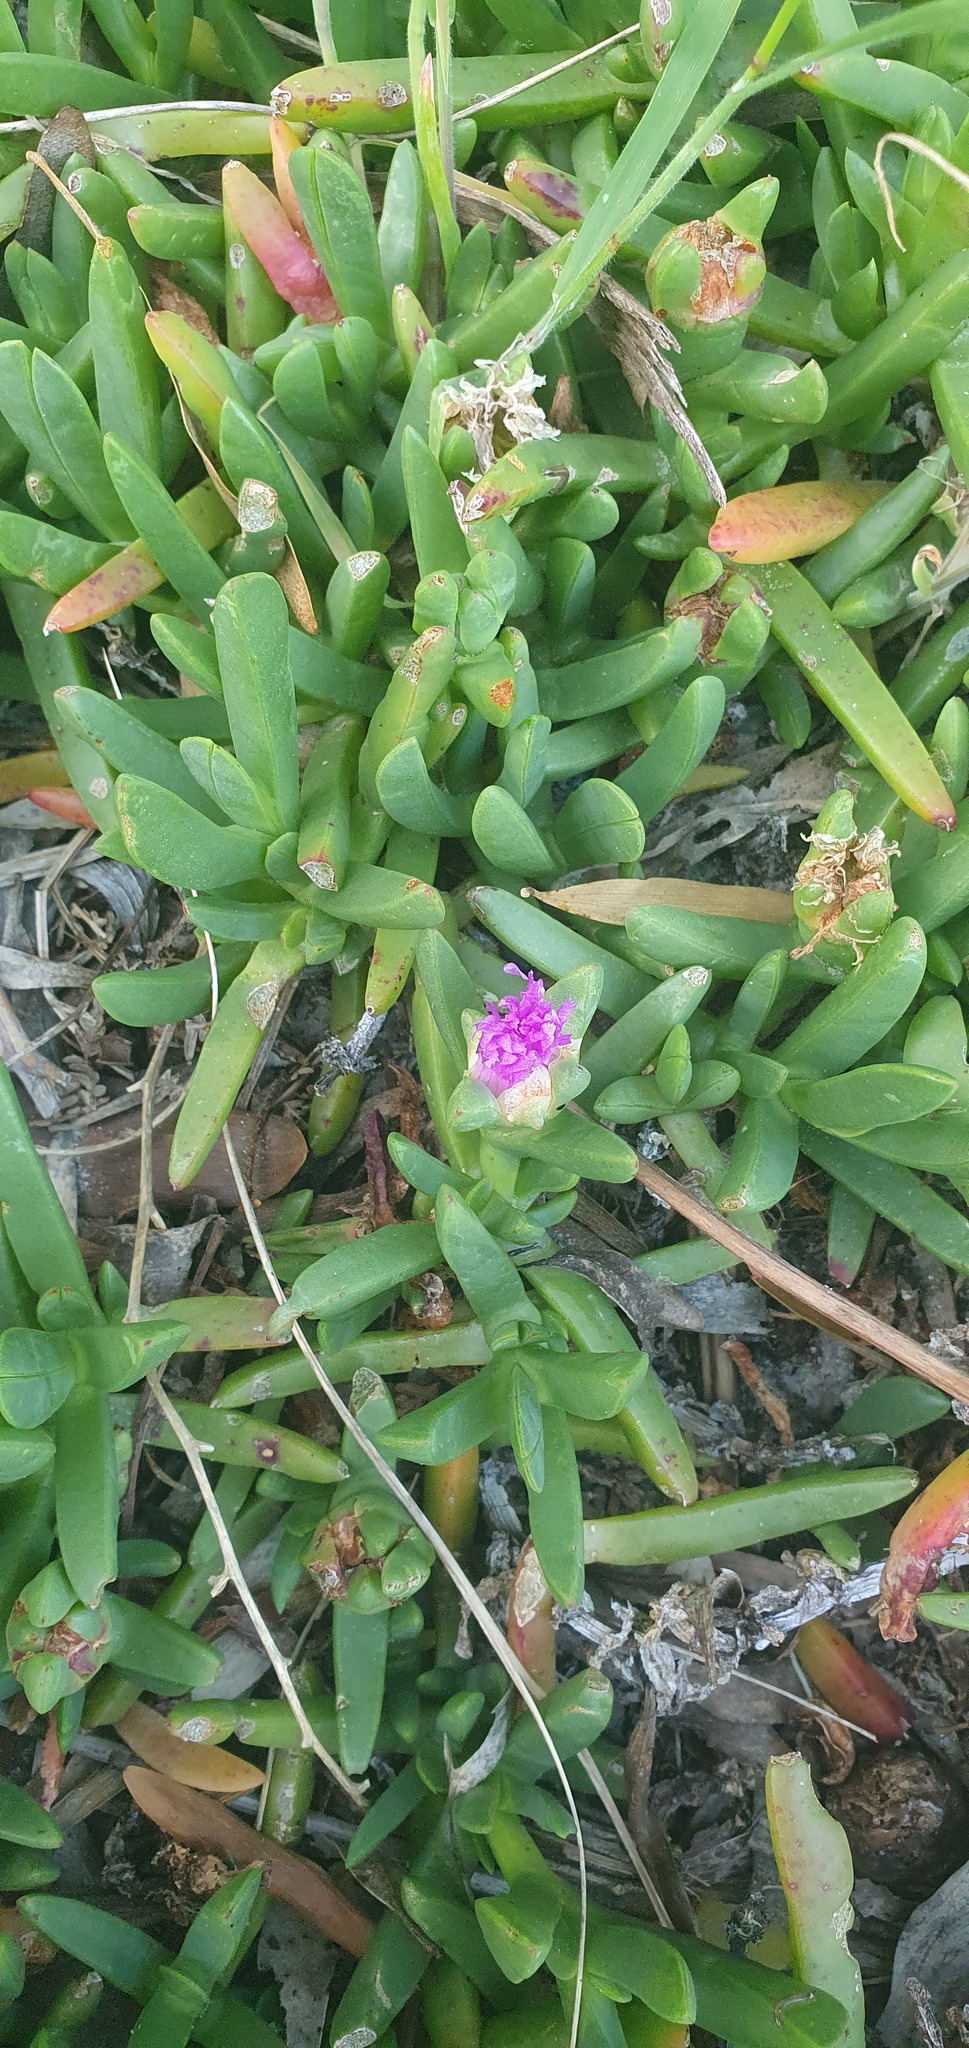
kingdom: Plantae
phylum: Tracheophyta
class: Magnoliopsida
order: Caryophyllales
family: Aizoaceae
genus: Carpobrotus
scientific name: Carpobrotus rossii
